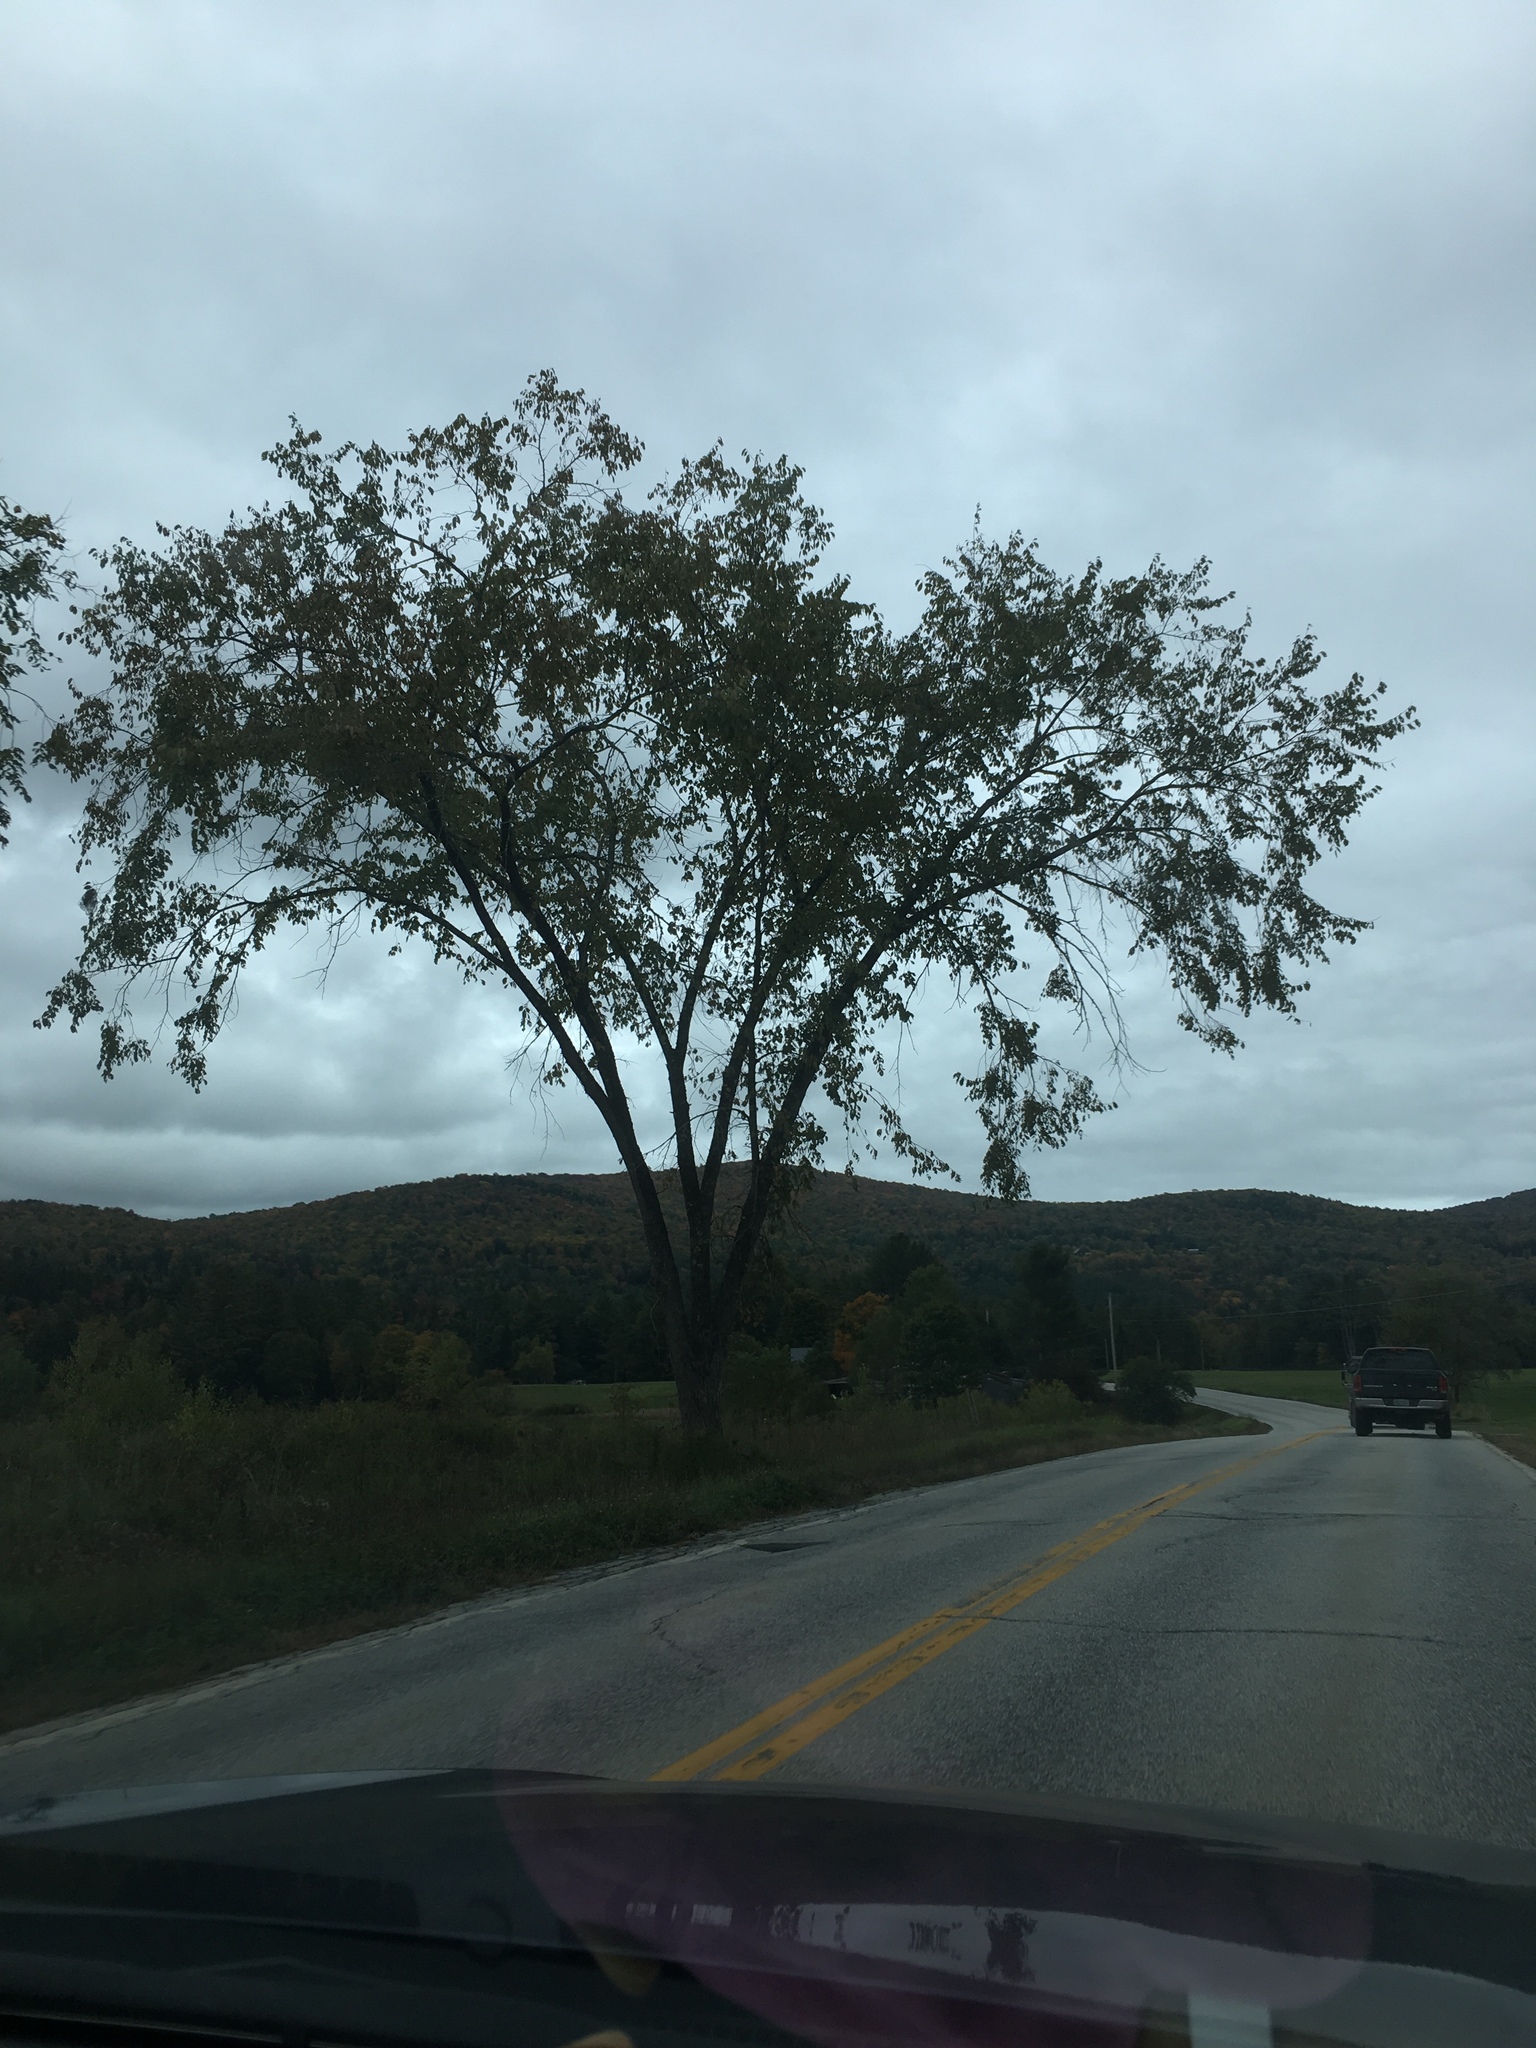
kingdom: Plantae
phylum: Tracheophyta
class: Magnoliopsida
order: Rosales
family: Ulmaceae
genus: Ulmus
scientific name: Ulmus americana
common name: American elm
